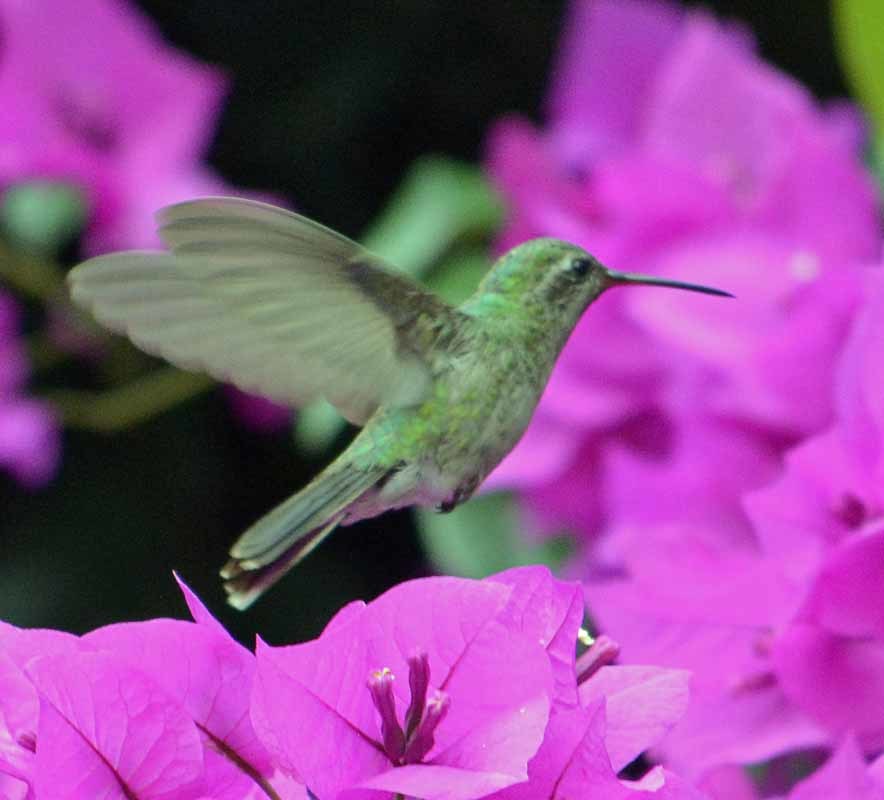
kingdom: Animalia
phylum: Chordata
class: Aves
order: Apodiformes
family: Trochilidae
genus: Cynanthus
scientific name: Cynanthus latirostris
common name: Broad-billed hummingbird
